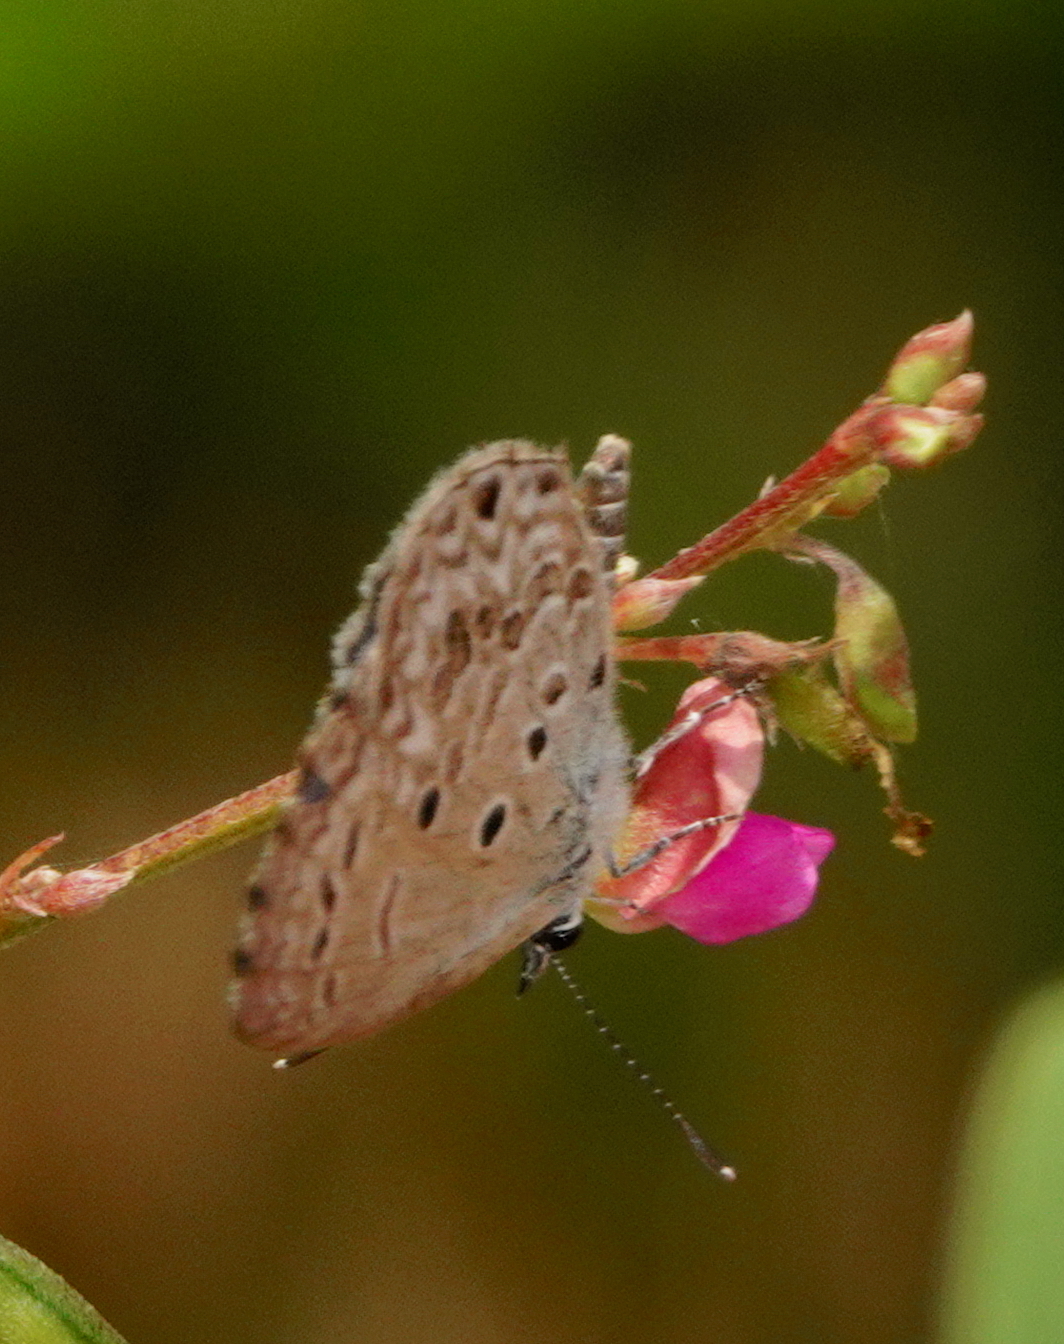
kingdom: Animalia
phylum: Arthropoda
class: Insecta
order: Lepidoptera
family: Lycaenidae
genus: Chilades
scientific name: Chilades laius
